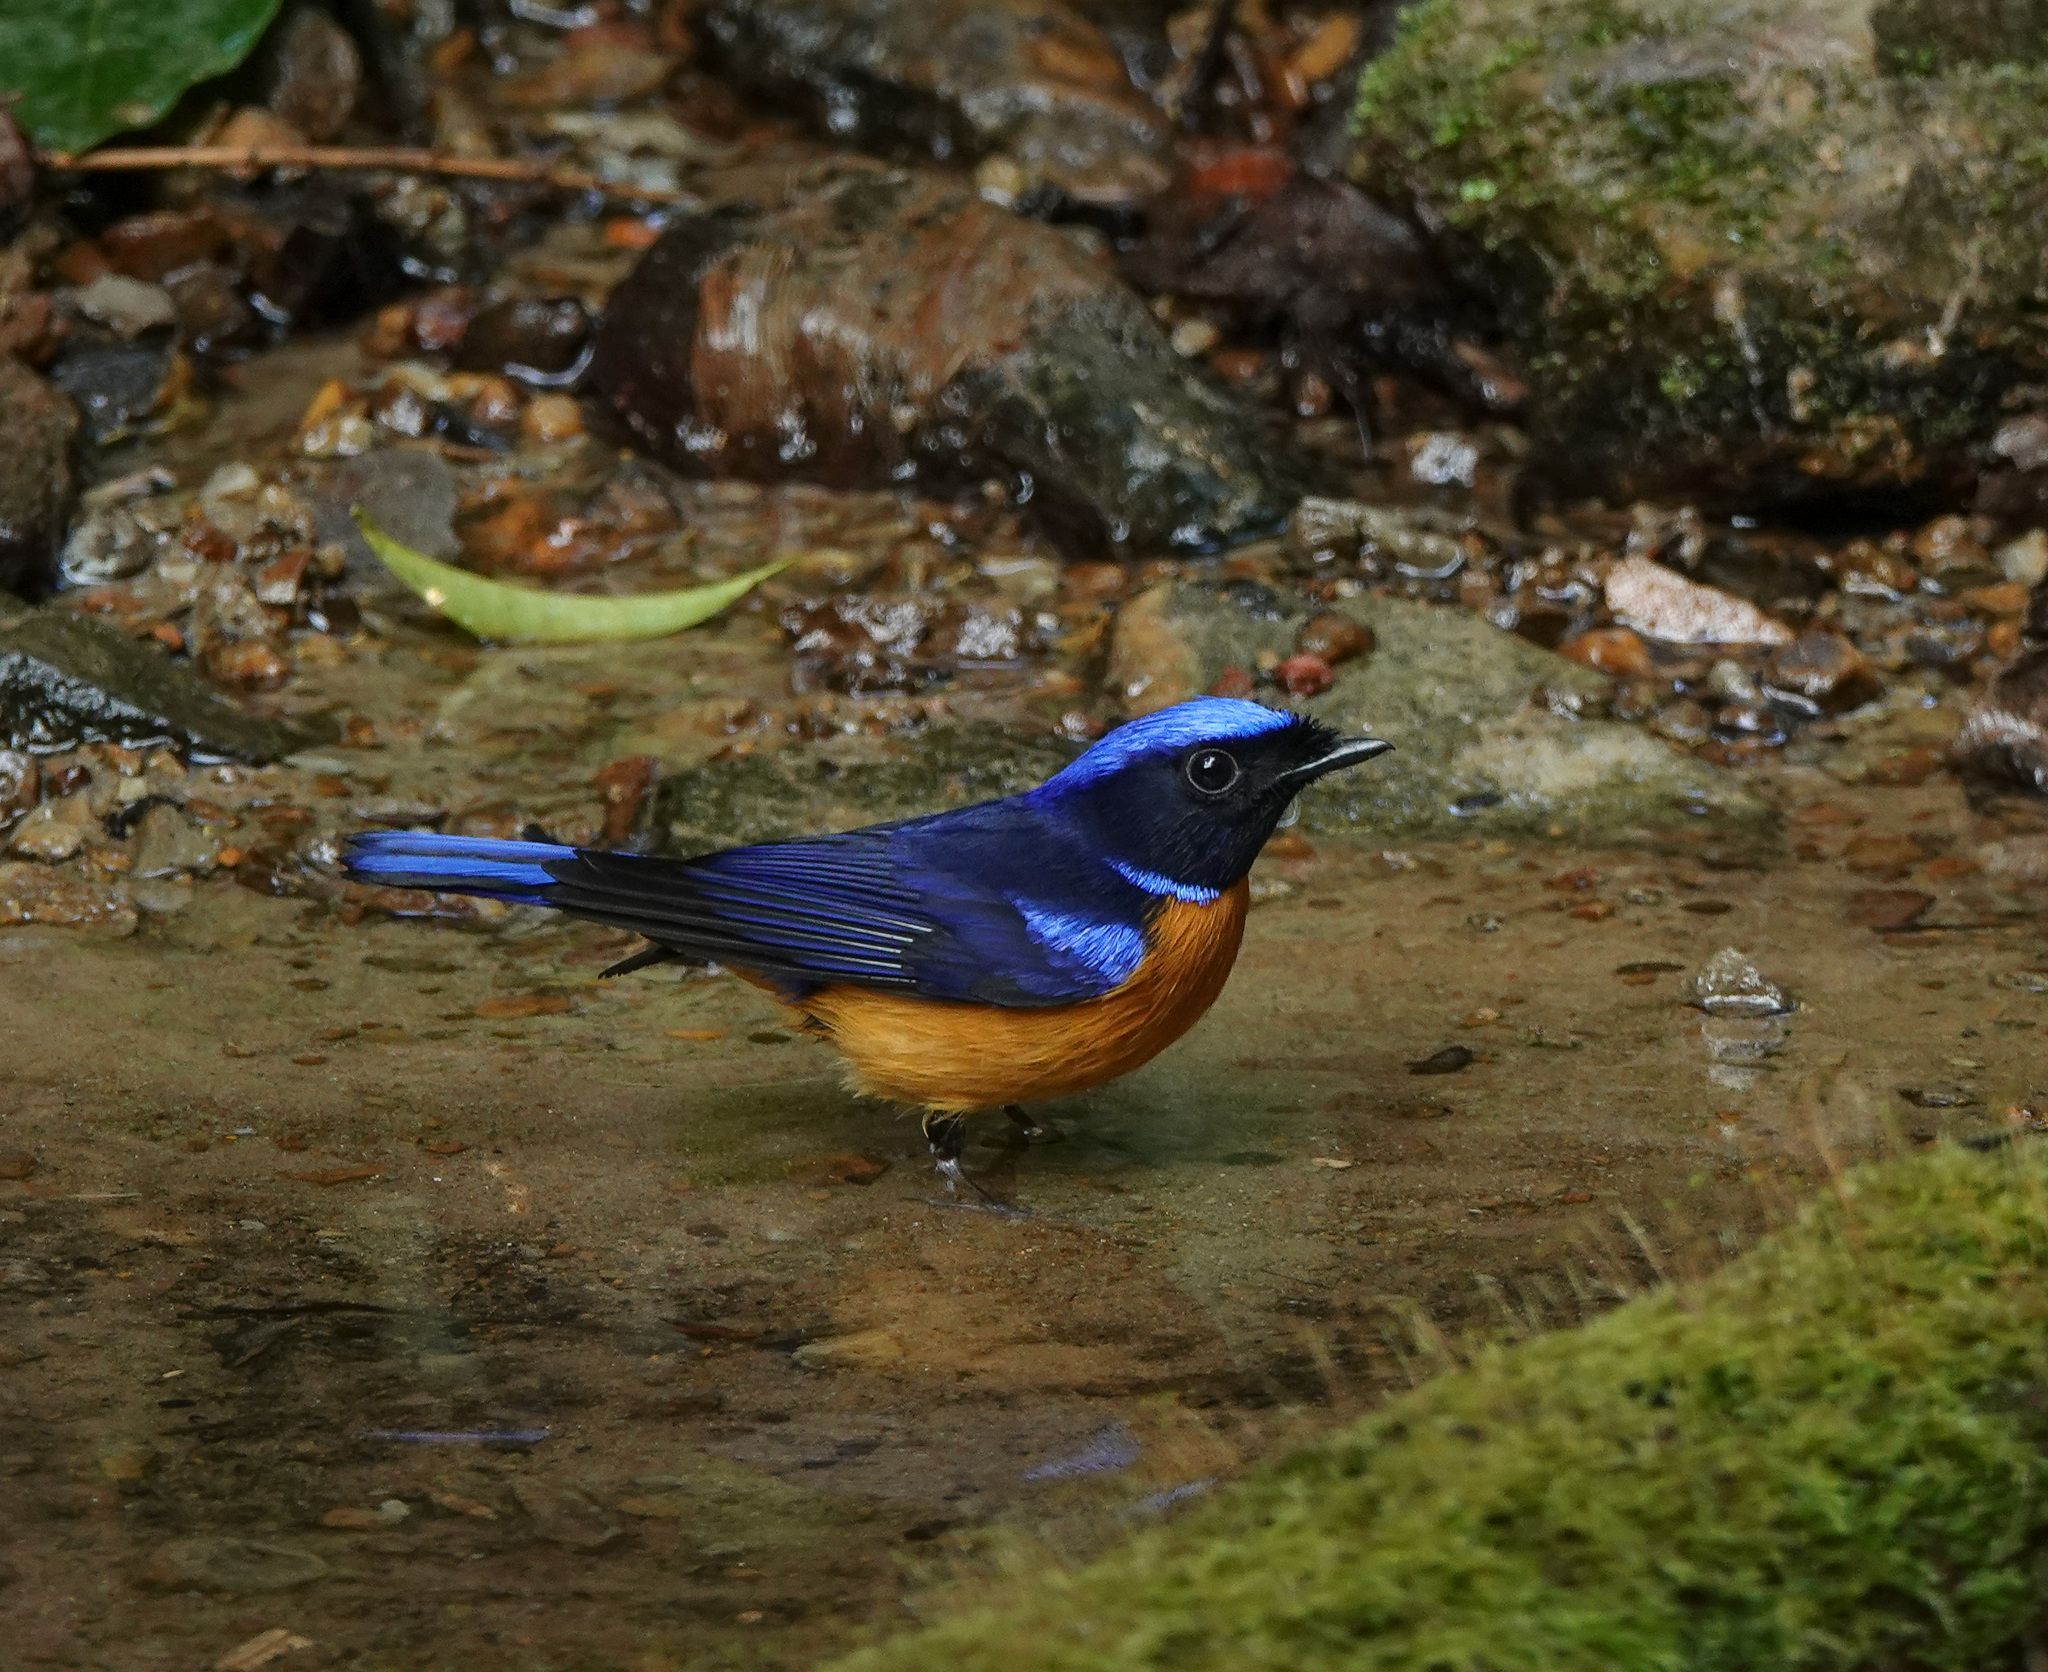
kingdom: Animalia
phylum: Chordata
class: Aves
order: Passeriformes
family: Muscicapidae
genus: Niltava
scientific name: Niltava sundara
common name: Rufous-bellied niltava
